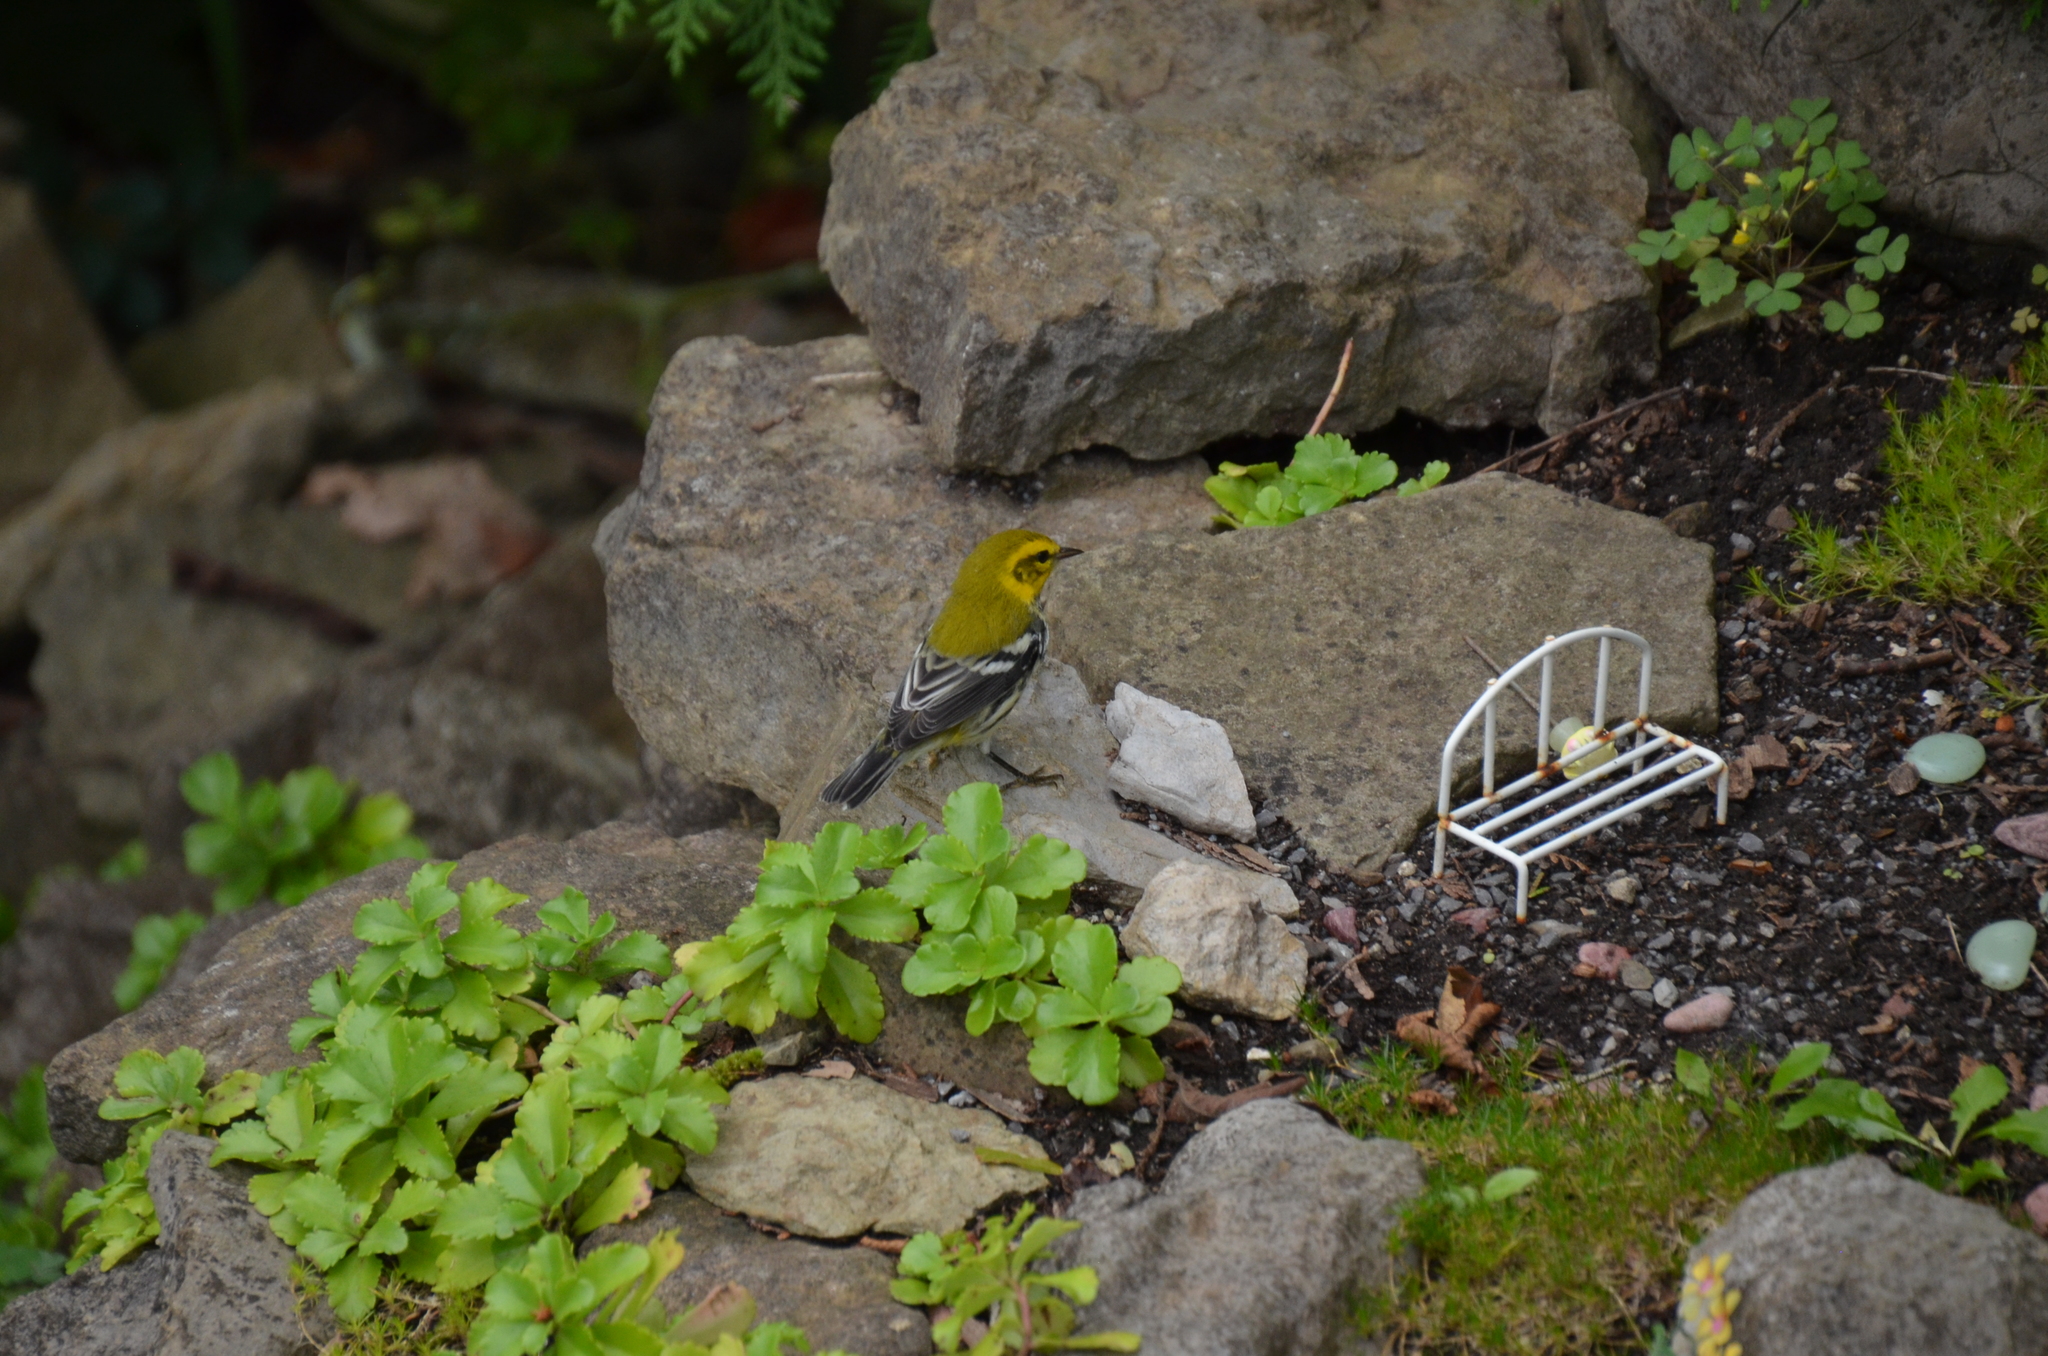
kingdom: Animalia
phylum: Chordata
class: Aves
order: Passeriformes
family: Parulidae
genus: Setophaga
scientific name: Setophaga virens
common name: Black-throated green warbler
